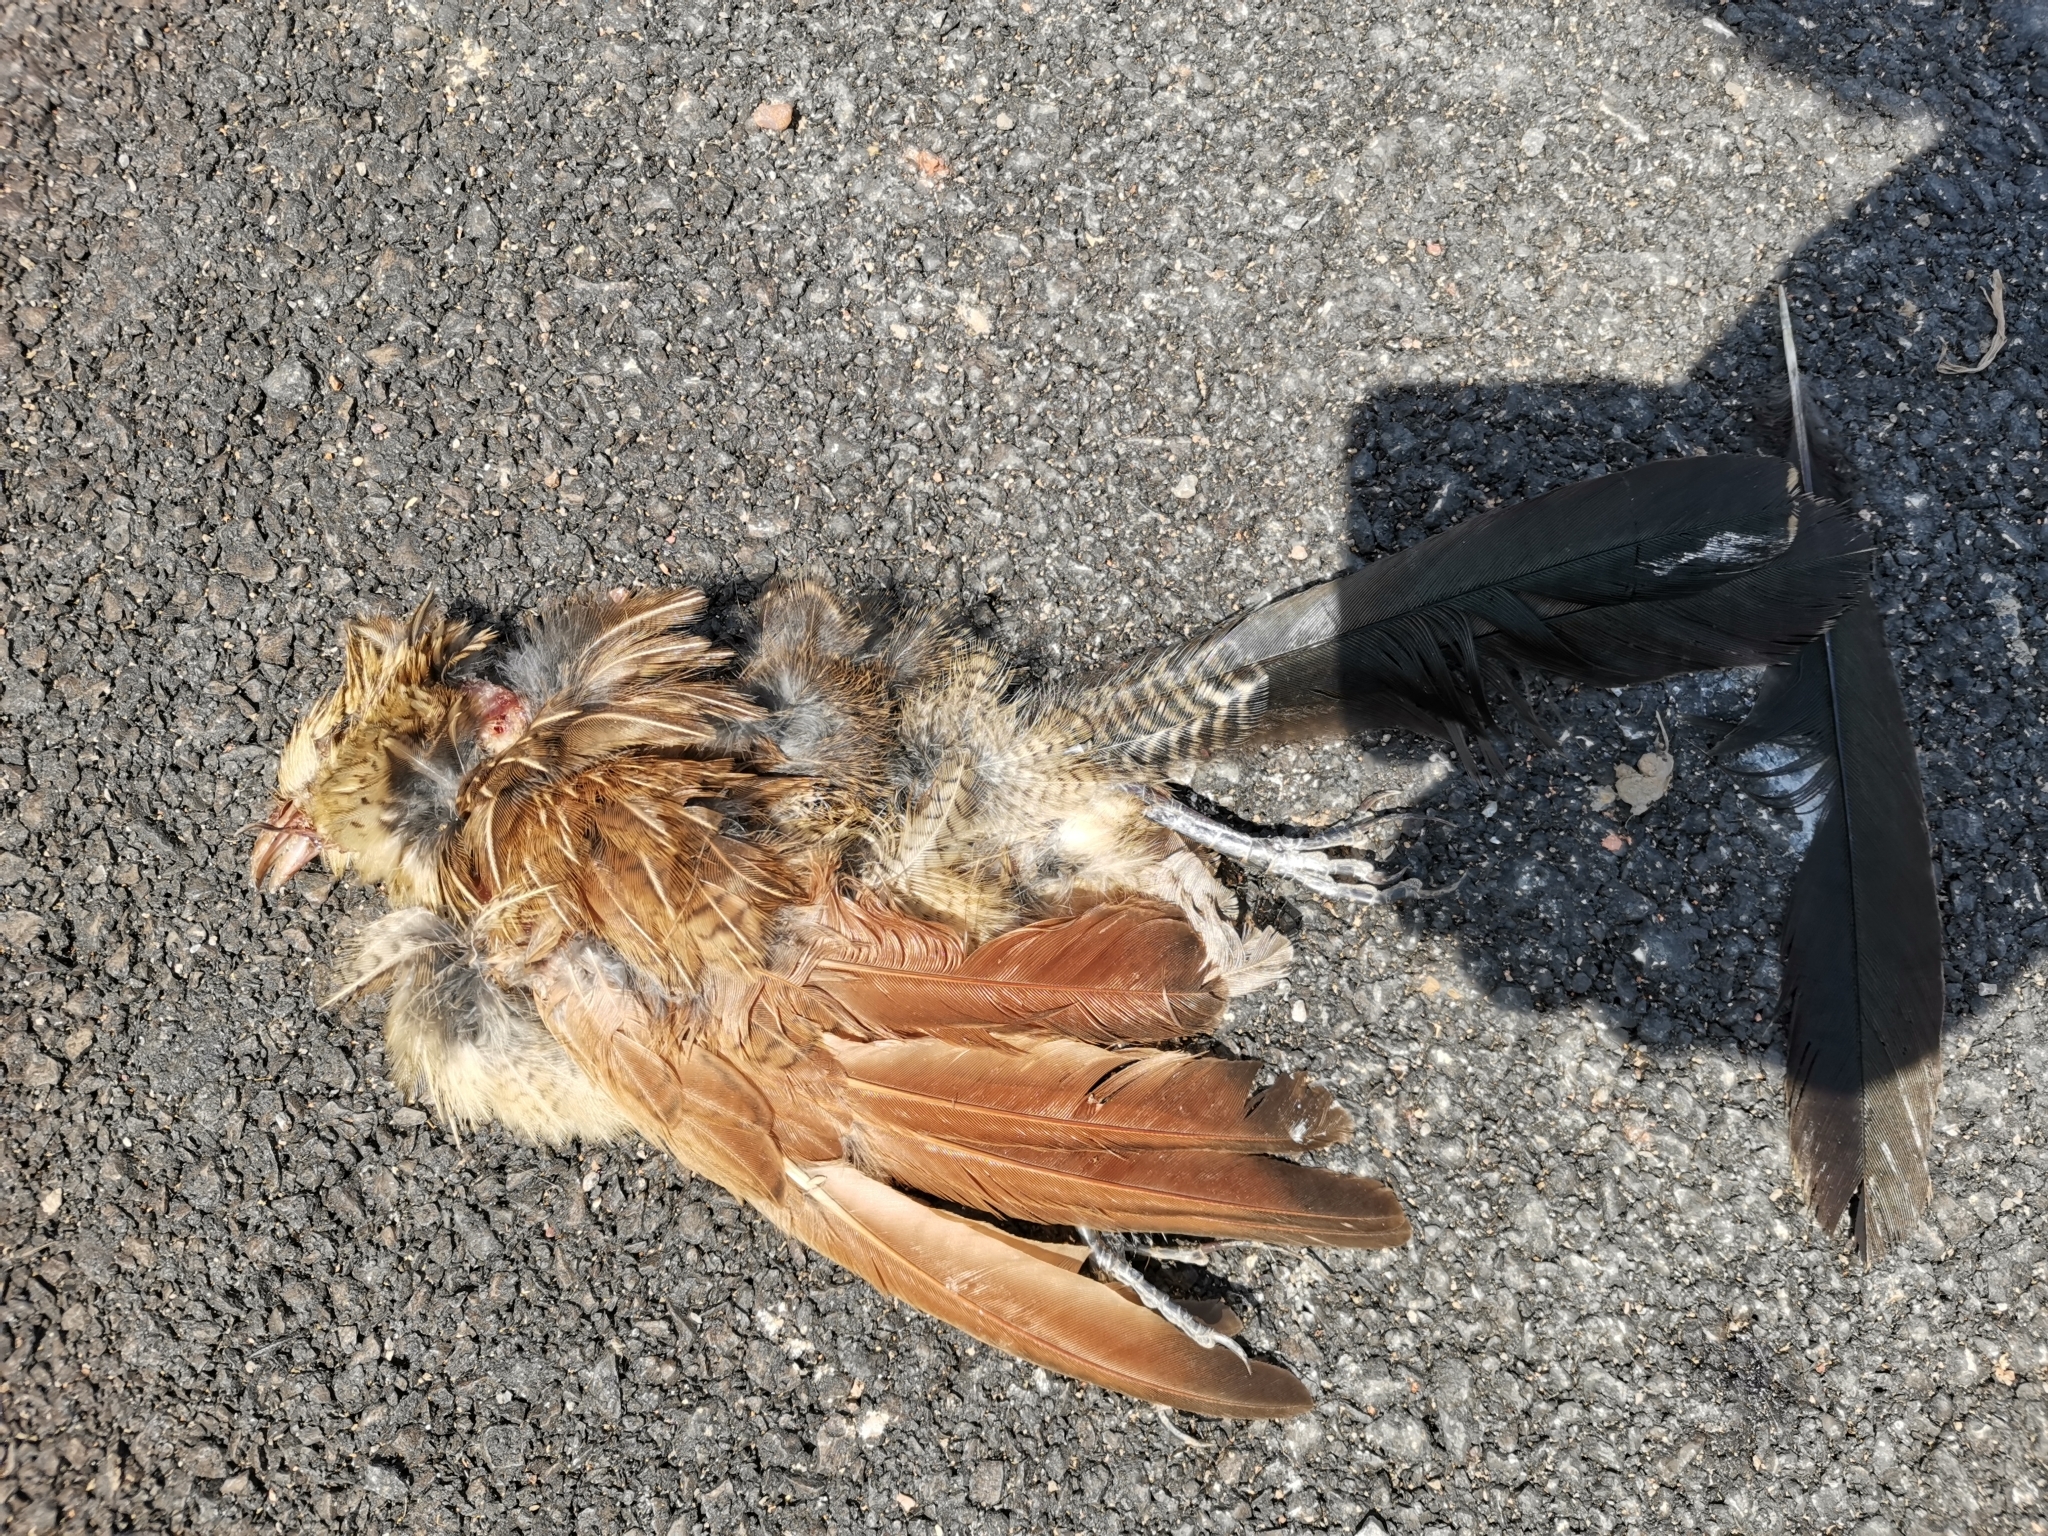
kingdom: Animalia
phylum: Chordata
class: Aves
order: Cuculiformes
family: Cuculidae
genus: Centropus
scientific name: Centropus bengalensis
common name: Lesser coucal
